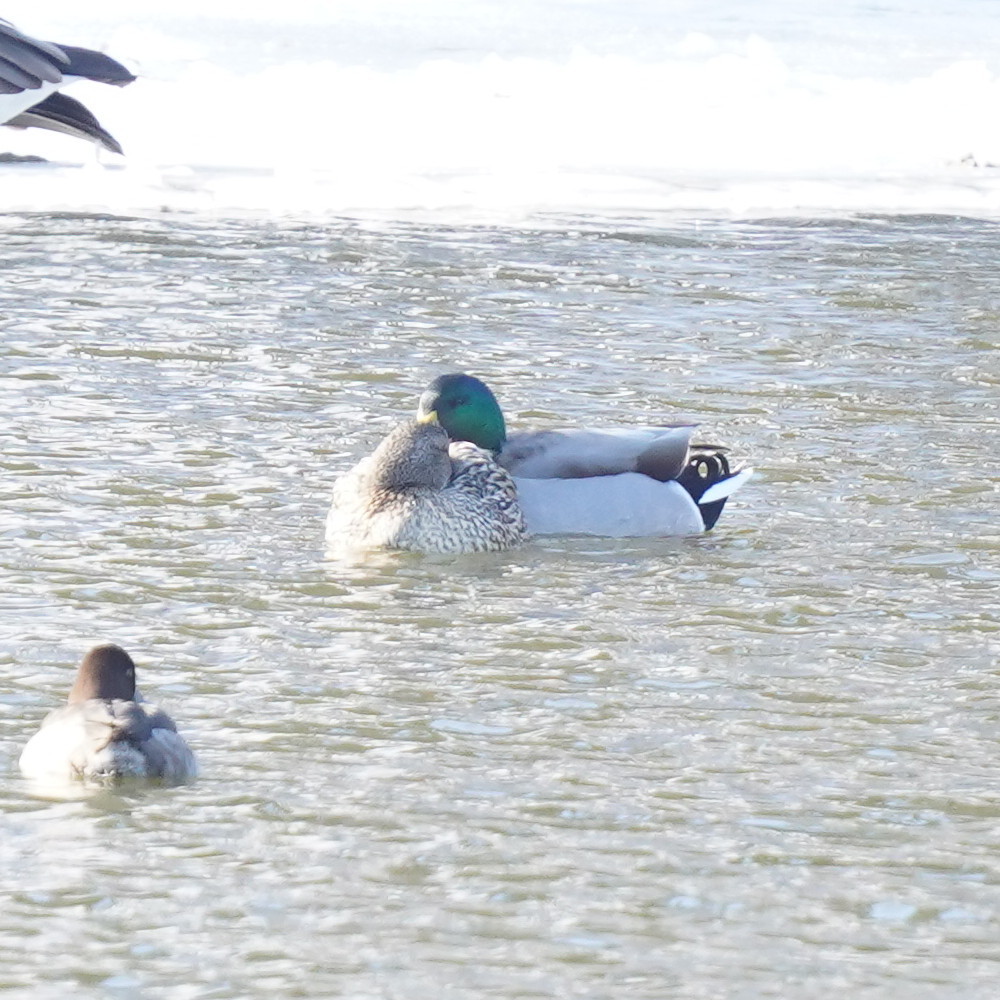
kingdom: Animalia
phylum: Chordata
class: Aves
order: Anseriformes
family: Anatidae
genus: Anas
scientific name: Anas platyrhynchos
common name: Mallard
